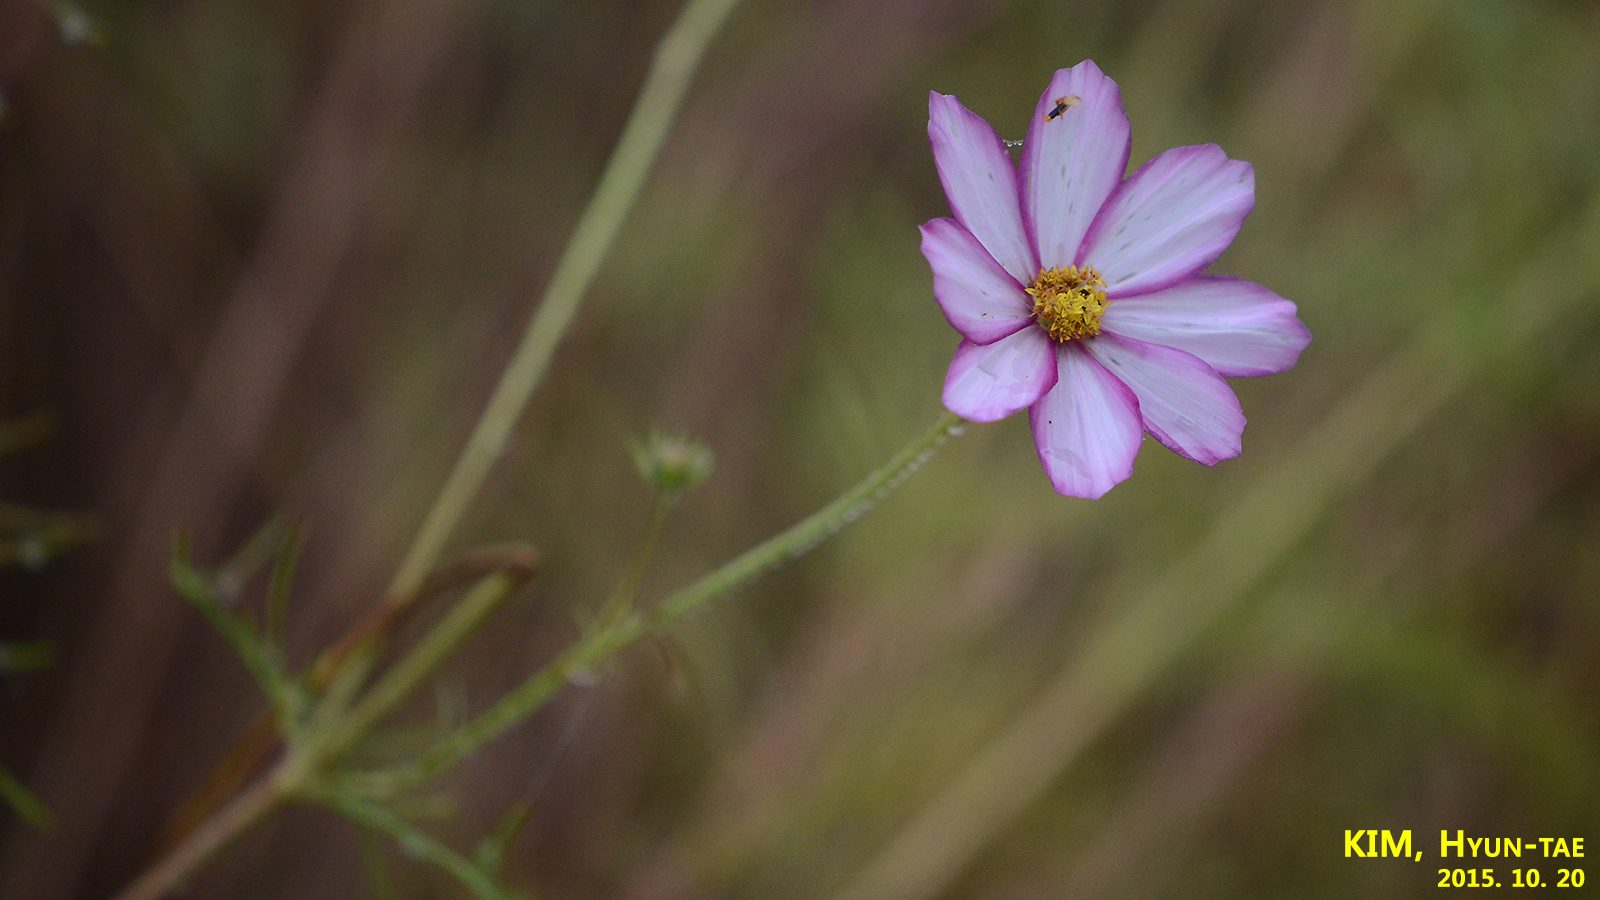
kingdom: Plantae
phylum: Tracheophyta
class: Magnoliopsida
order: Asterales
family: Asteraceae
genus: Cosmos
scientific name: Cosmos bipinnatus
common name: Garden cosmos
